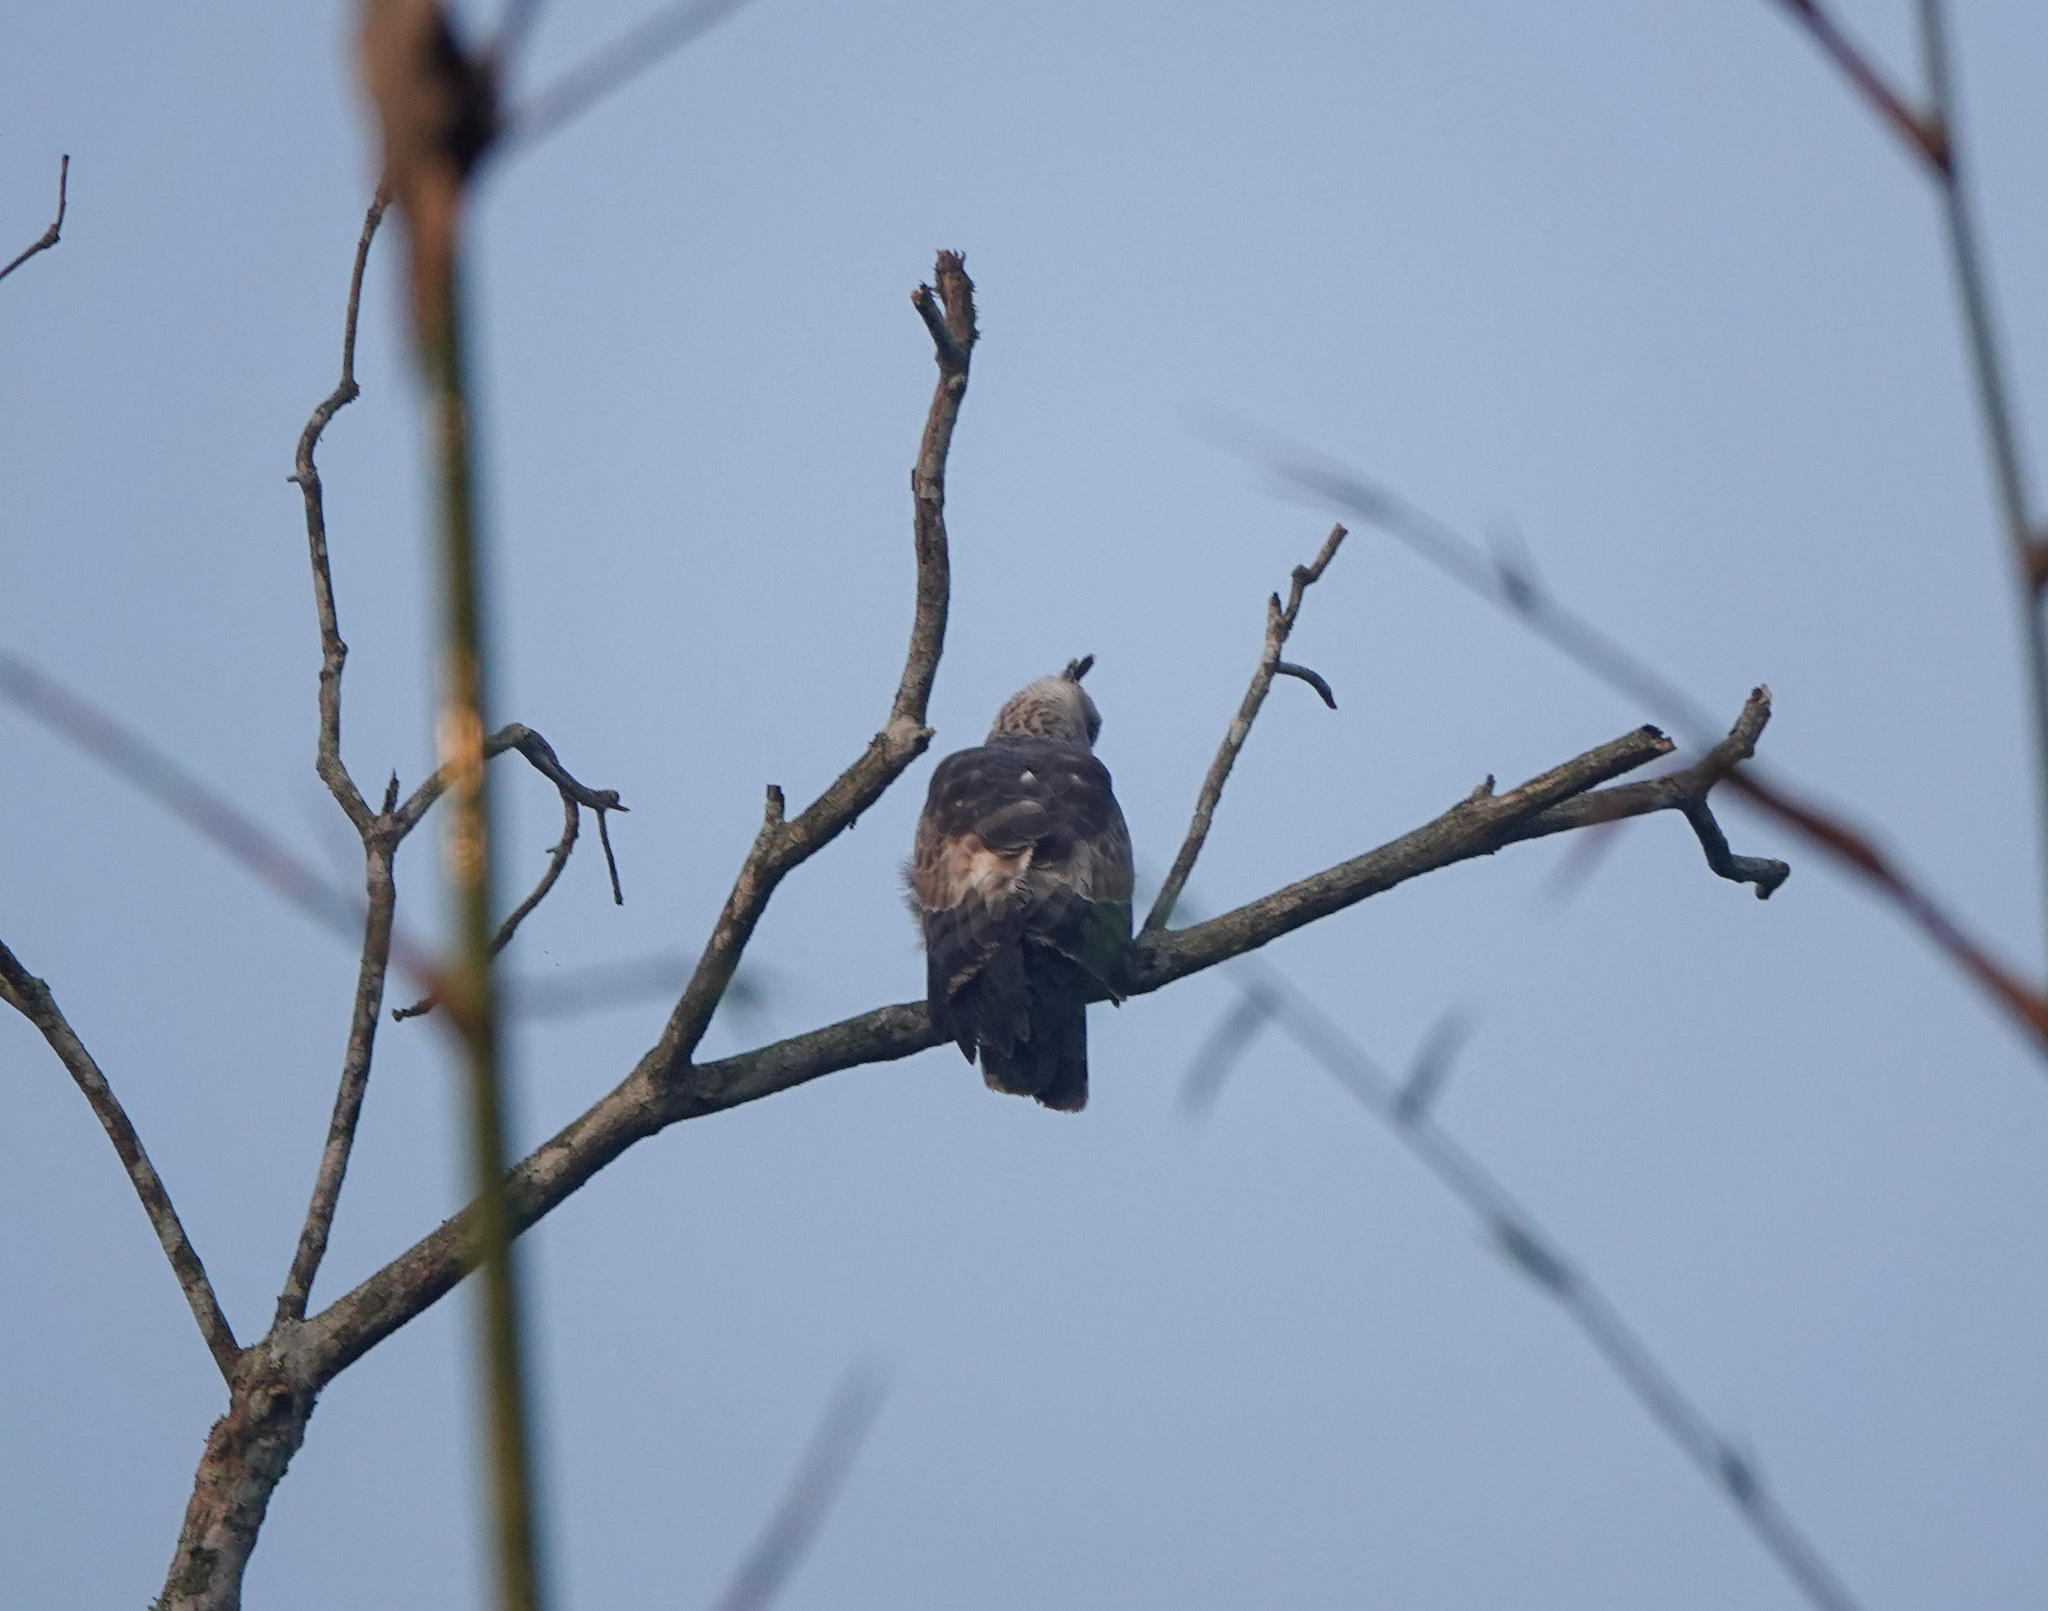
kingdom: Animalia
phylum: Chordata
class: Aves
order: Accipitriformes
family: Accipitridae
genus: Aviceda
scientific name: Aviceda jerdoni
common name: Jerdon's baza
